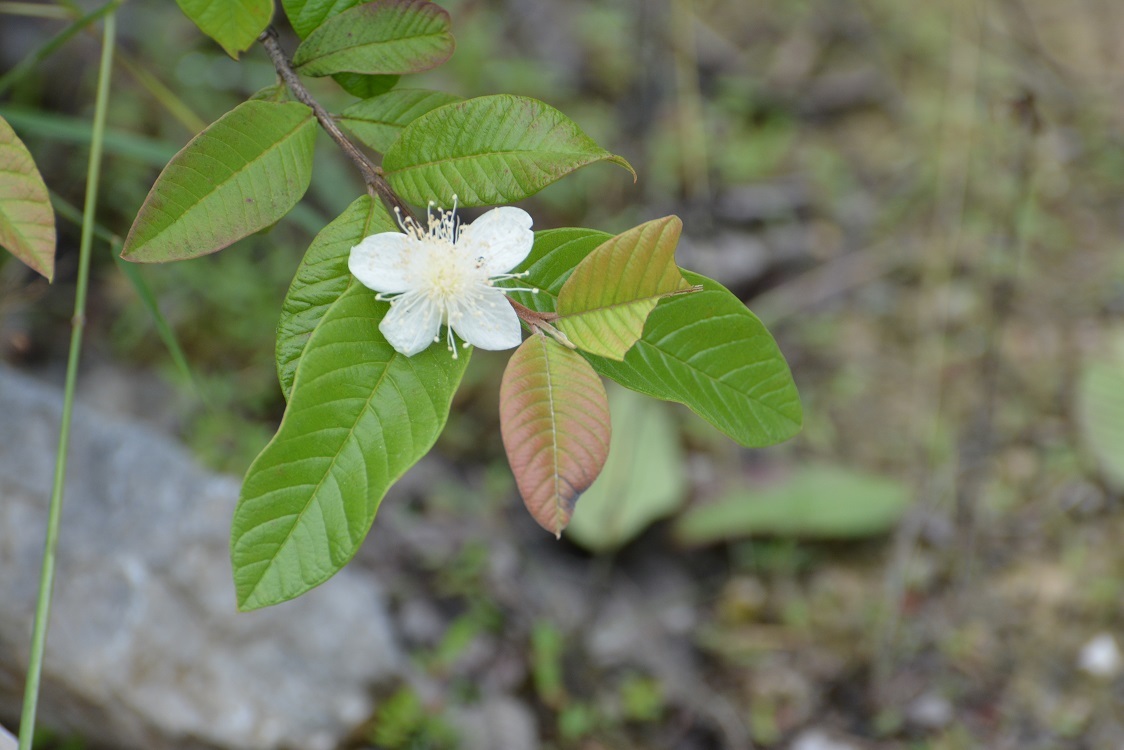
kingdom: Plantae
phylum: Tracheophyta
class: Magnoliopsida
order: Myrtales
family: Myrtaceae
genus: Psidium
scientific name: Psidium guajava
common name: Guava
